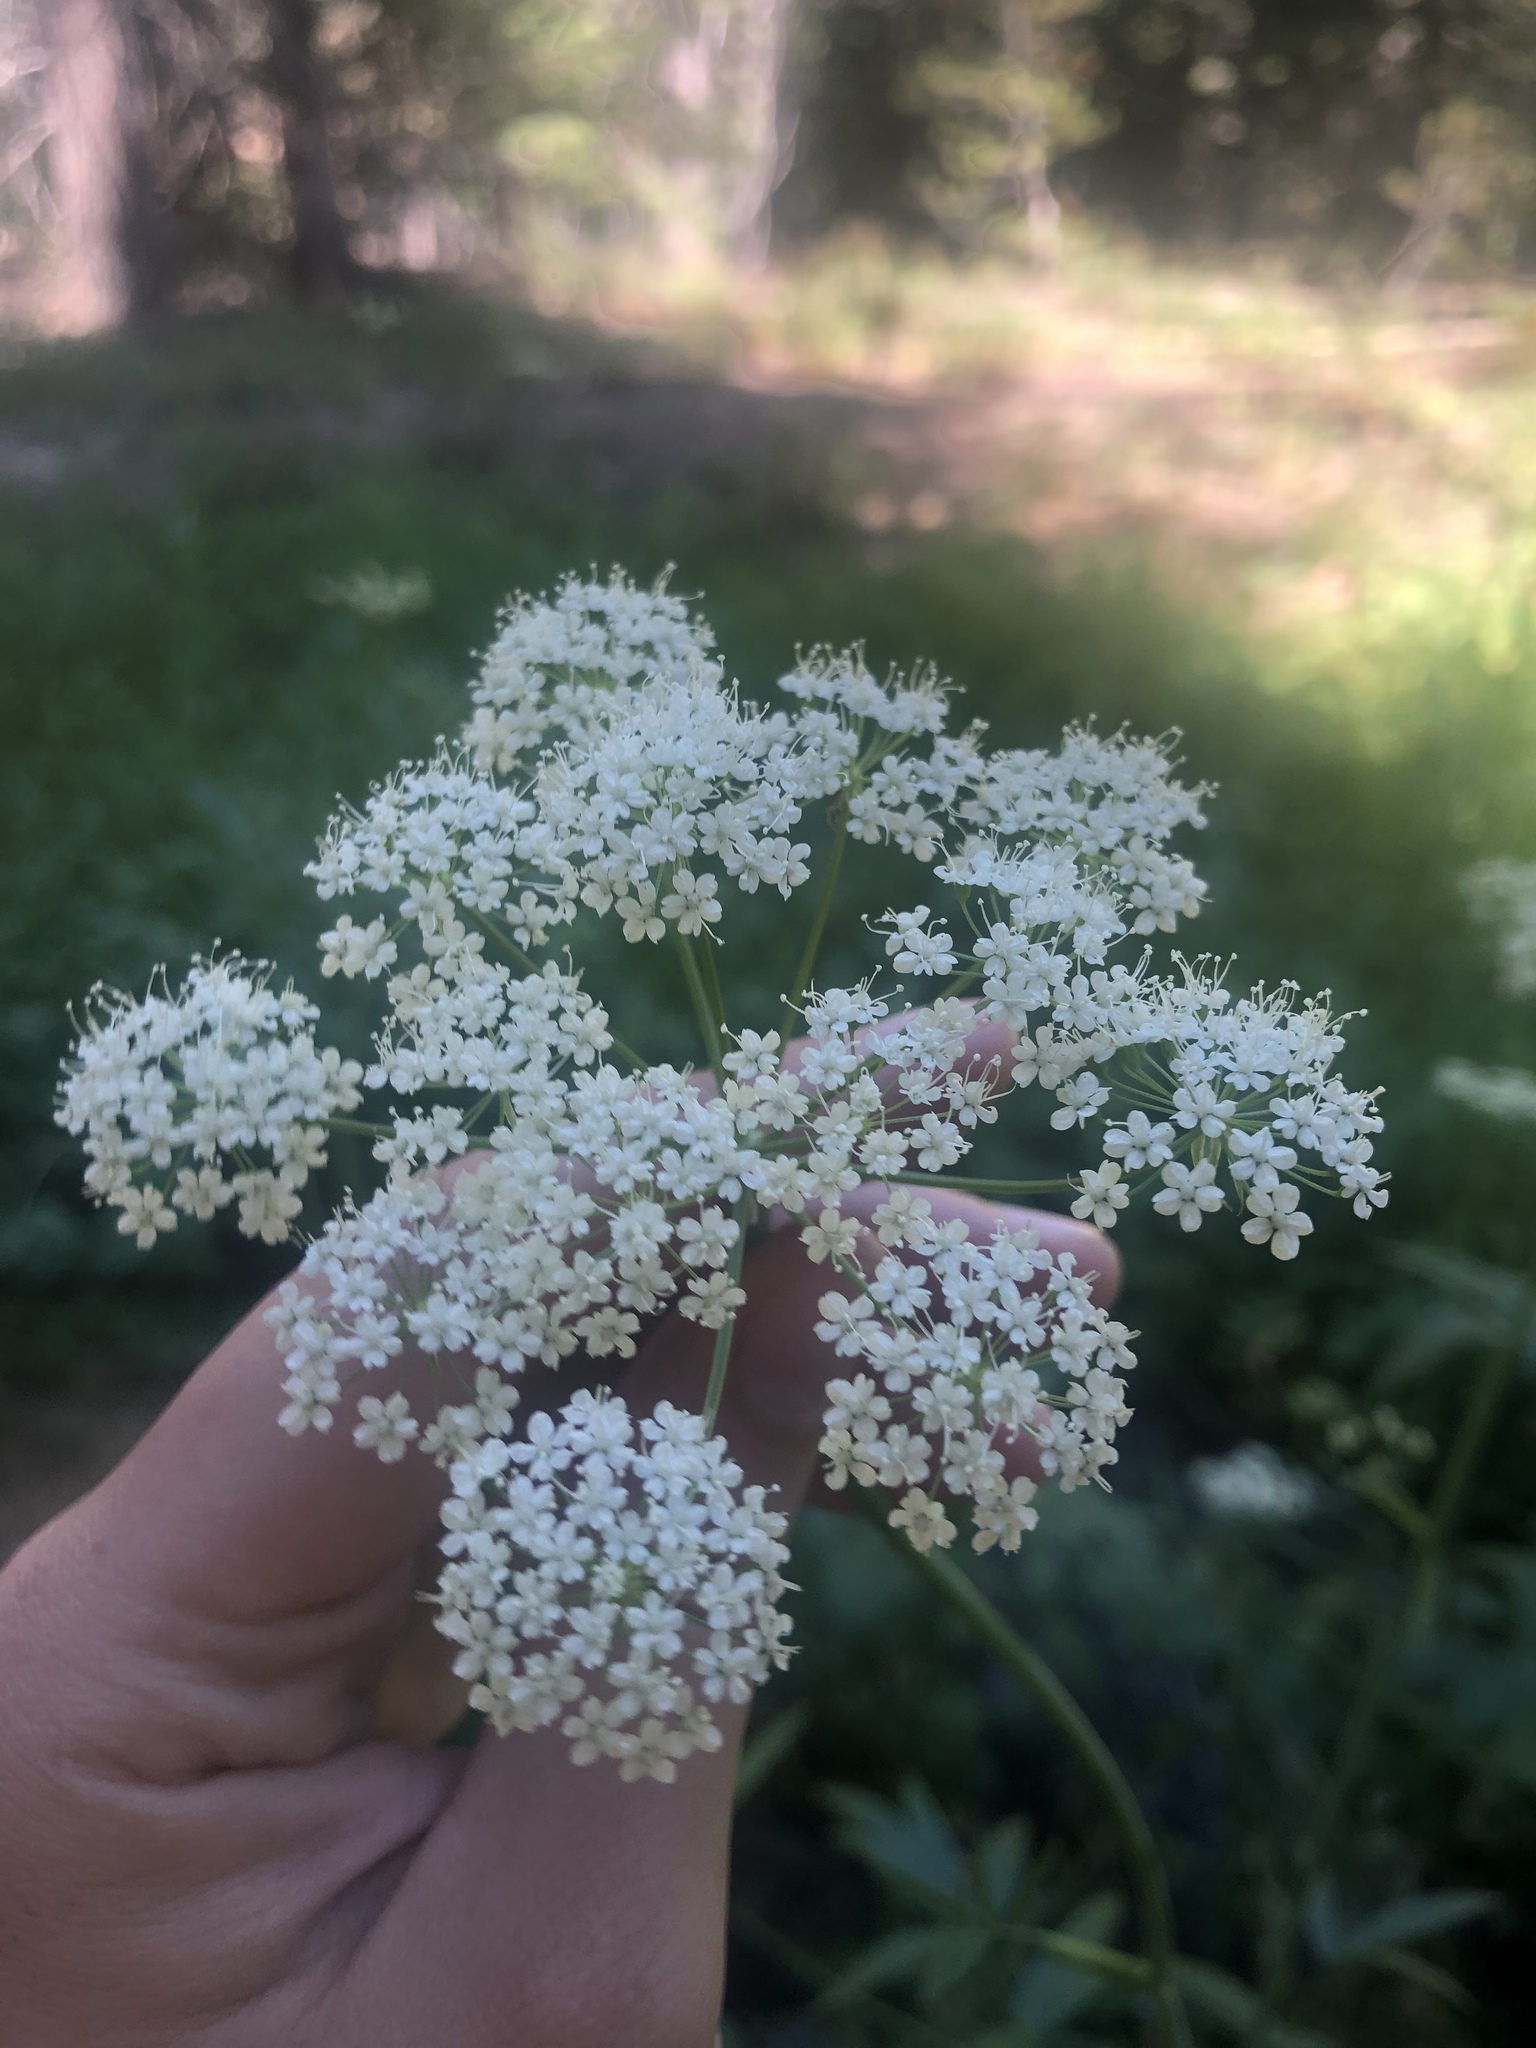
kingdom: Plantae
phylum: Tracheophyta
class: Magnoliopsida
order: Apiales
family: Apiaceae
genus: Oxypolis
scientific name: Oxypolis occidentalis
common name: Western cowbane
